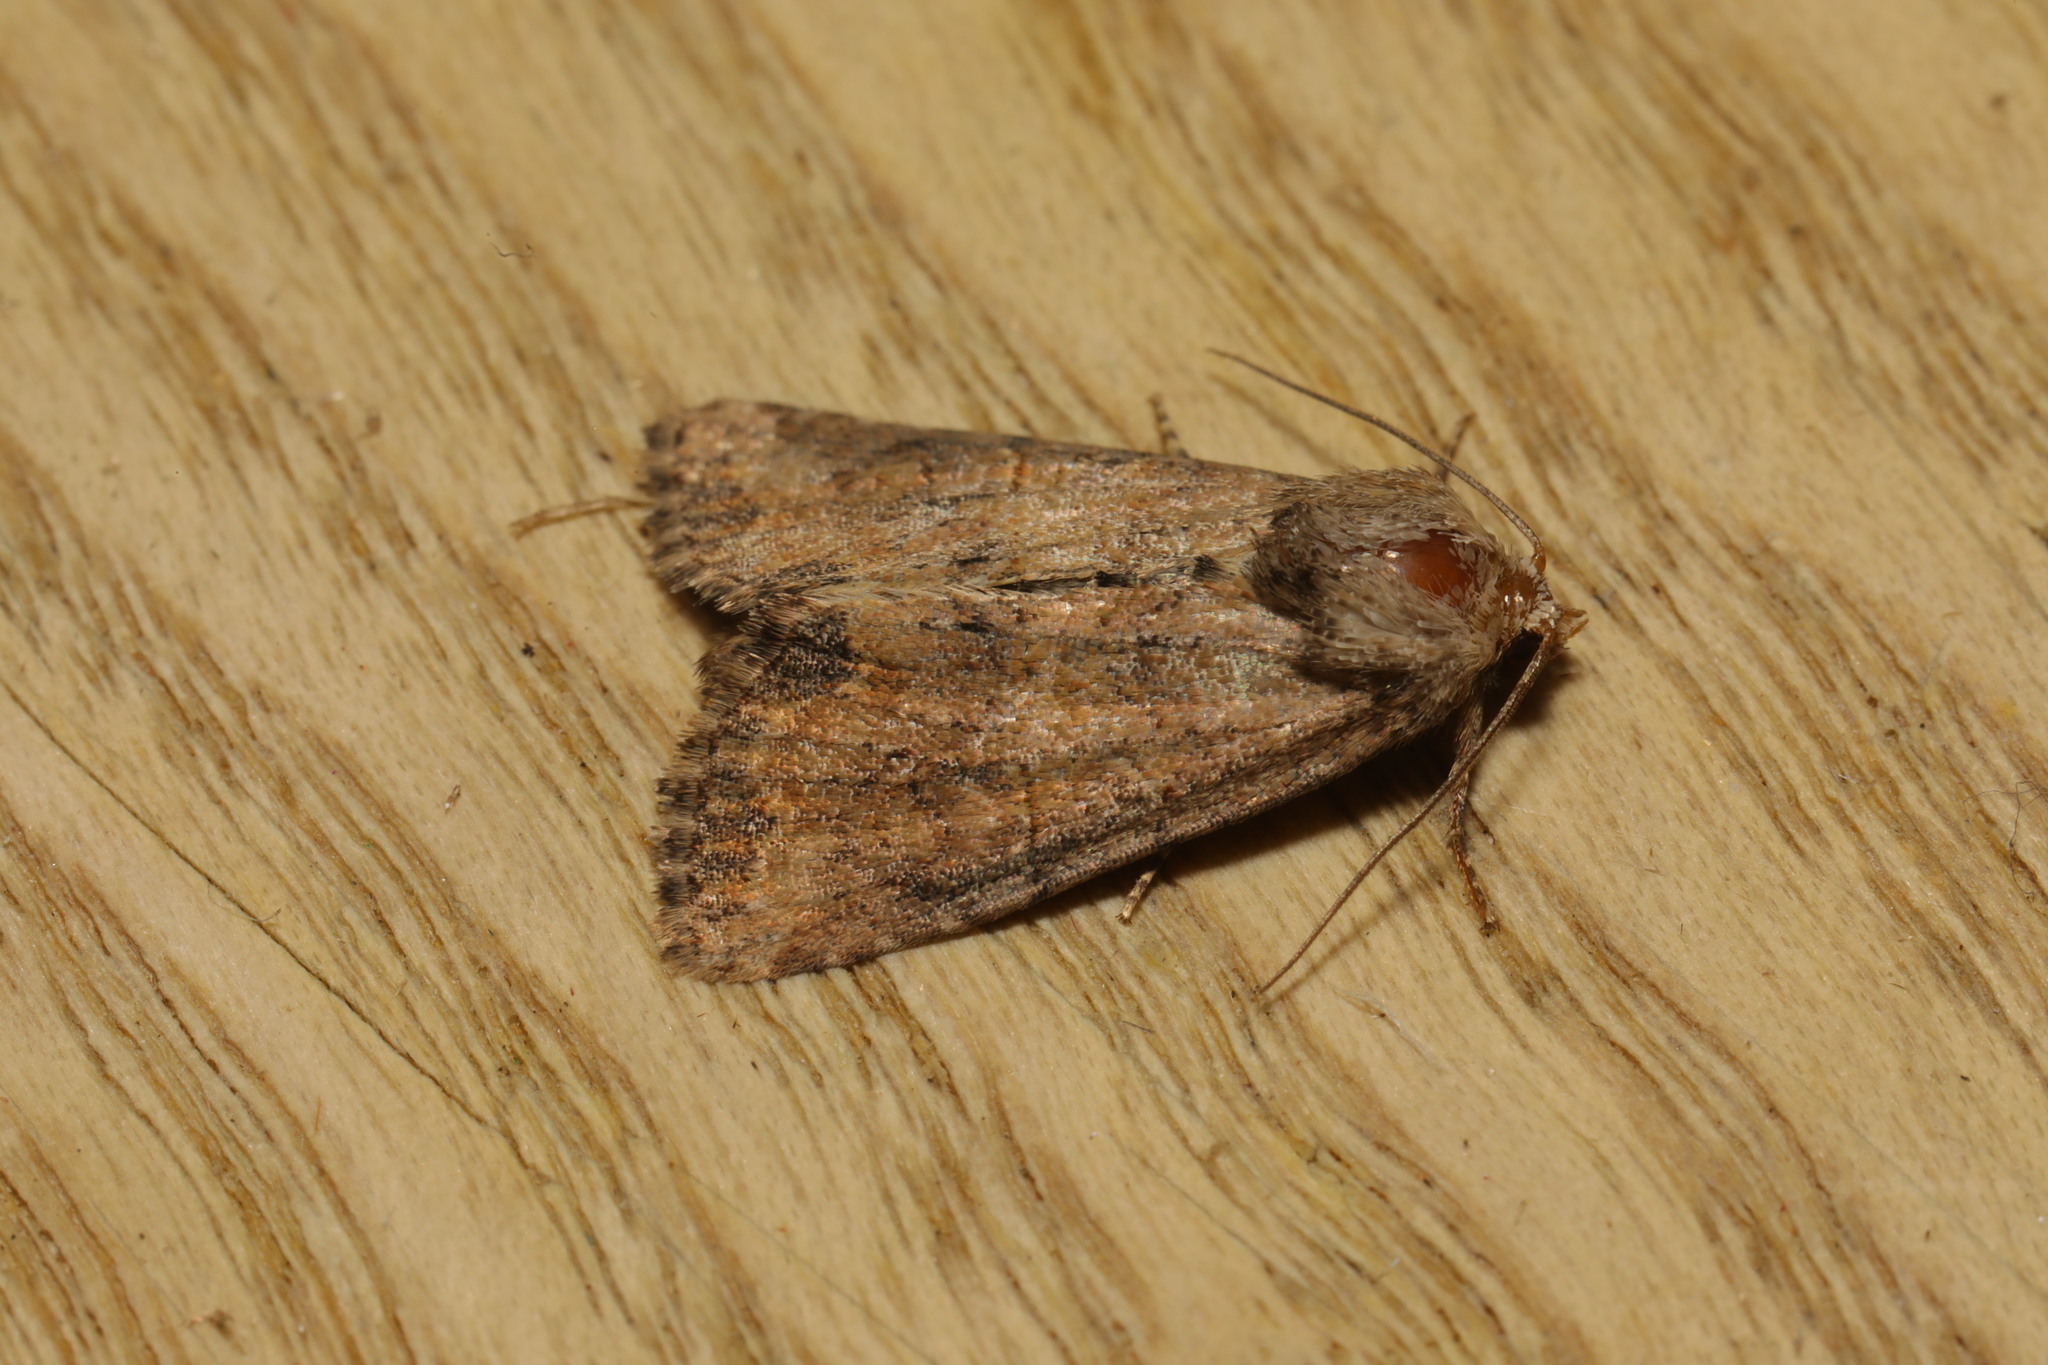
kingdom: Animalia
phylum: Arthropoda
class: Insecta
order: Lepidoptera
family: Noctuidae
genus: Mesoligia
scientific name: Mesoligia furuncula
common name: Cloaked minor
